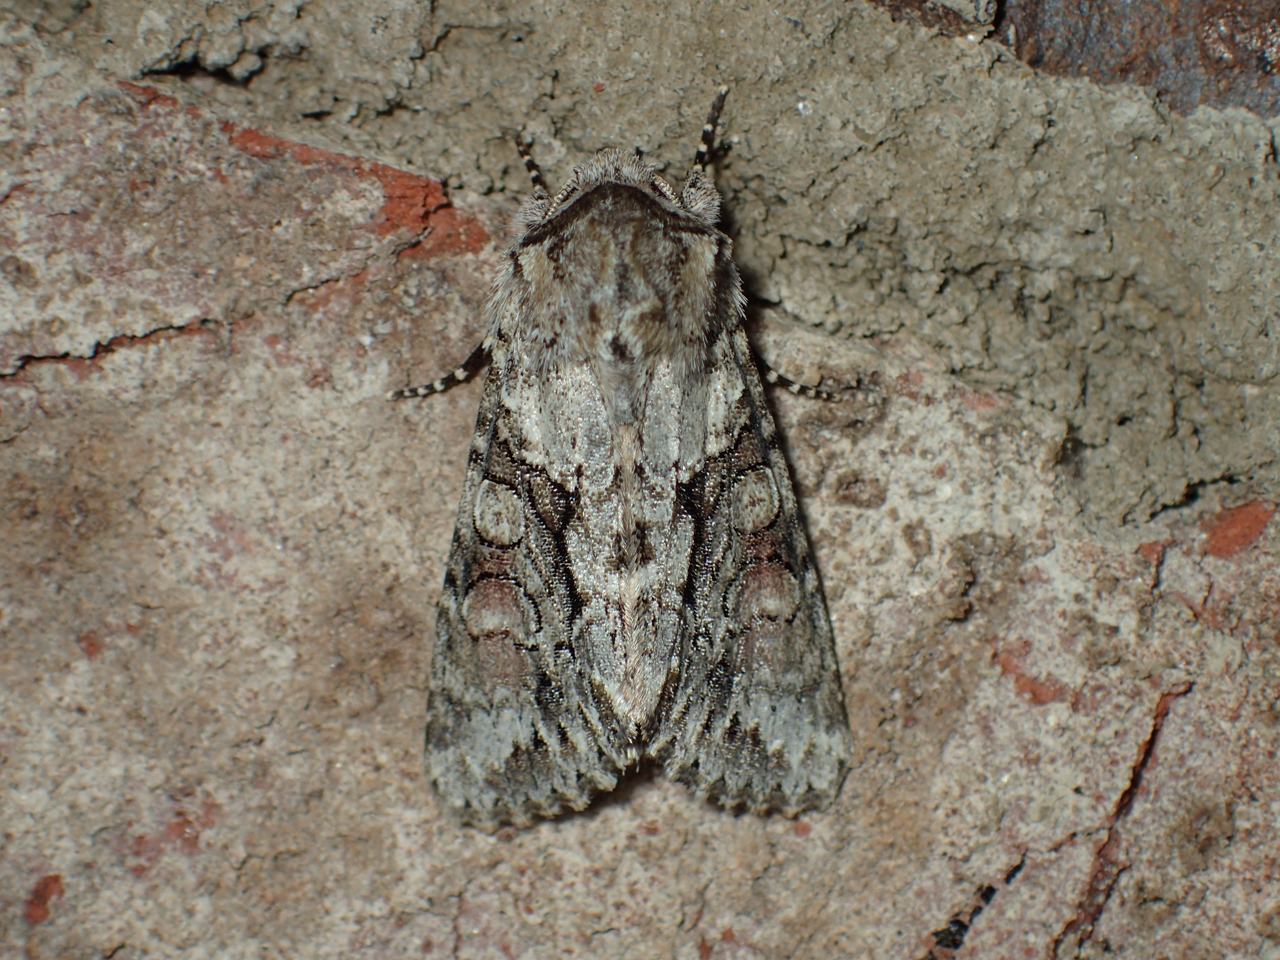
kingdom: Animalia
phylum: Arthropoda
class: Insecta
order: Lepidoptera
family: Noctuidae
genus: Achatia
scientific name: Achatia distincta
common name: Distinct quaker
